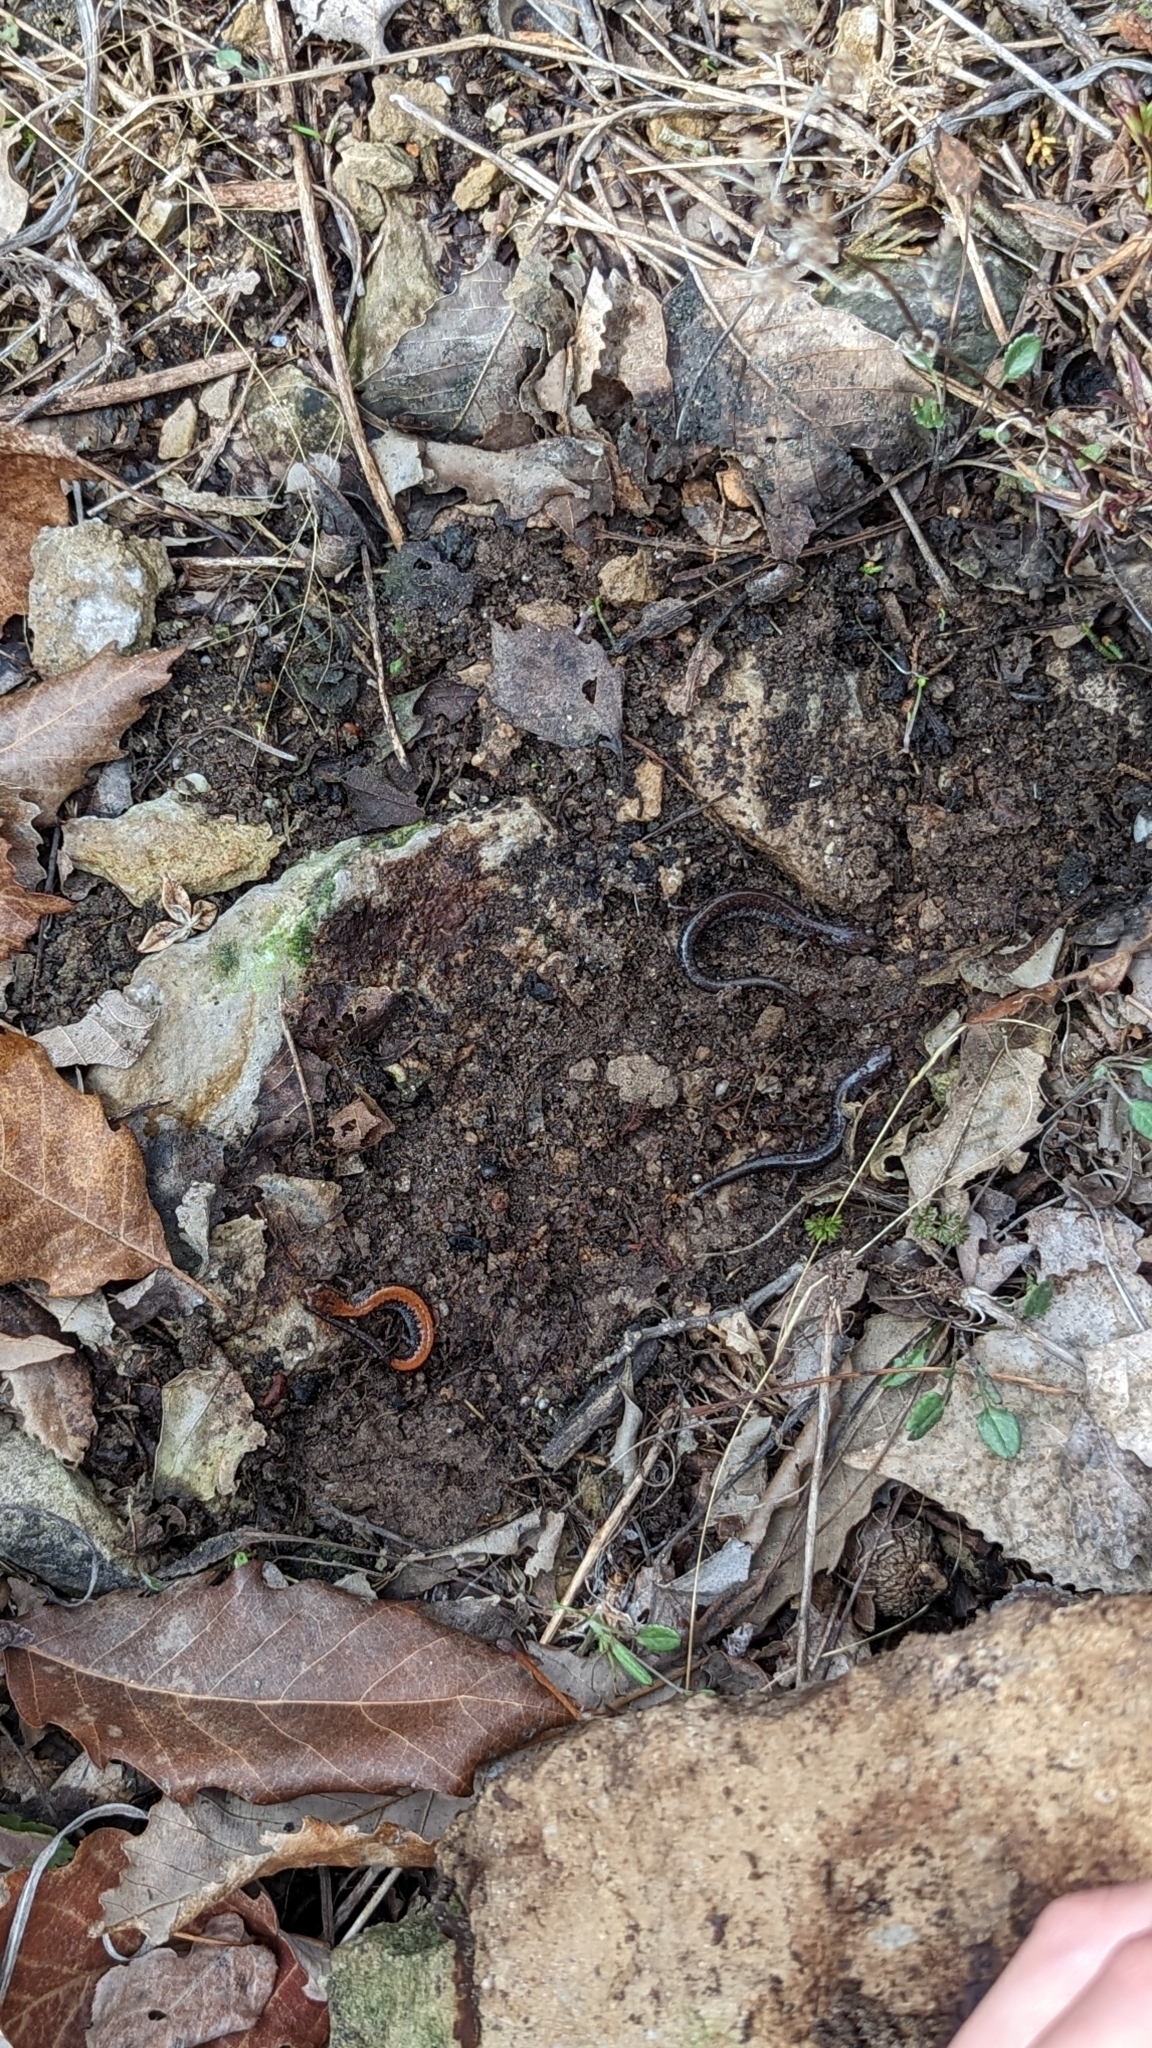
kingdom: Animalia
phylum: Chordata
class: Amphibia
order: Caudata
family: Plethodontidae
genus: Plethodon
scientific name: Plethodon cinereus
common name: Redback salamander
